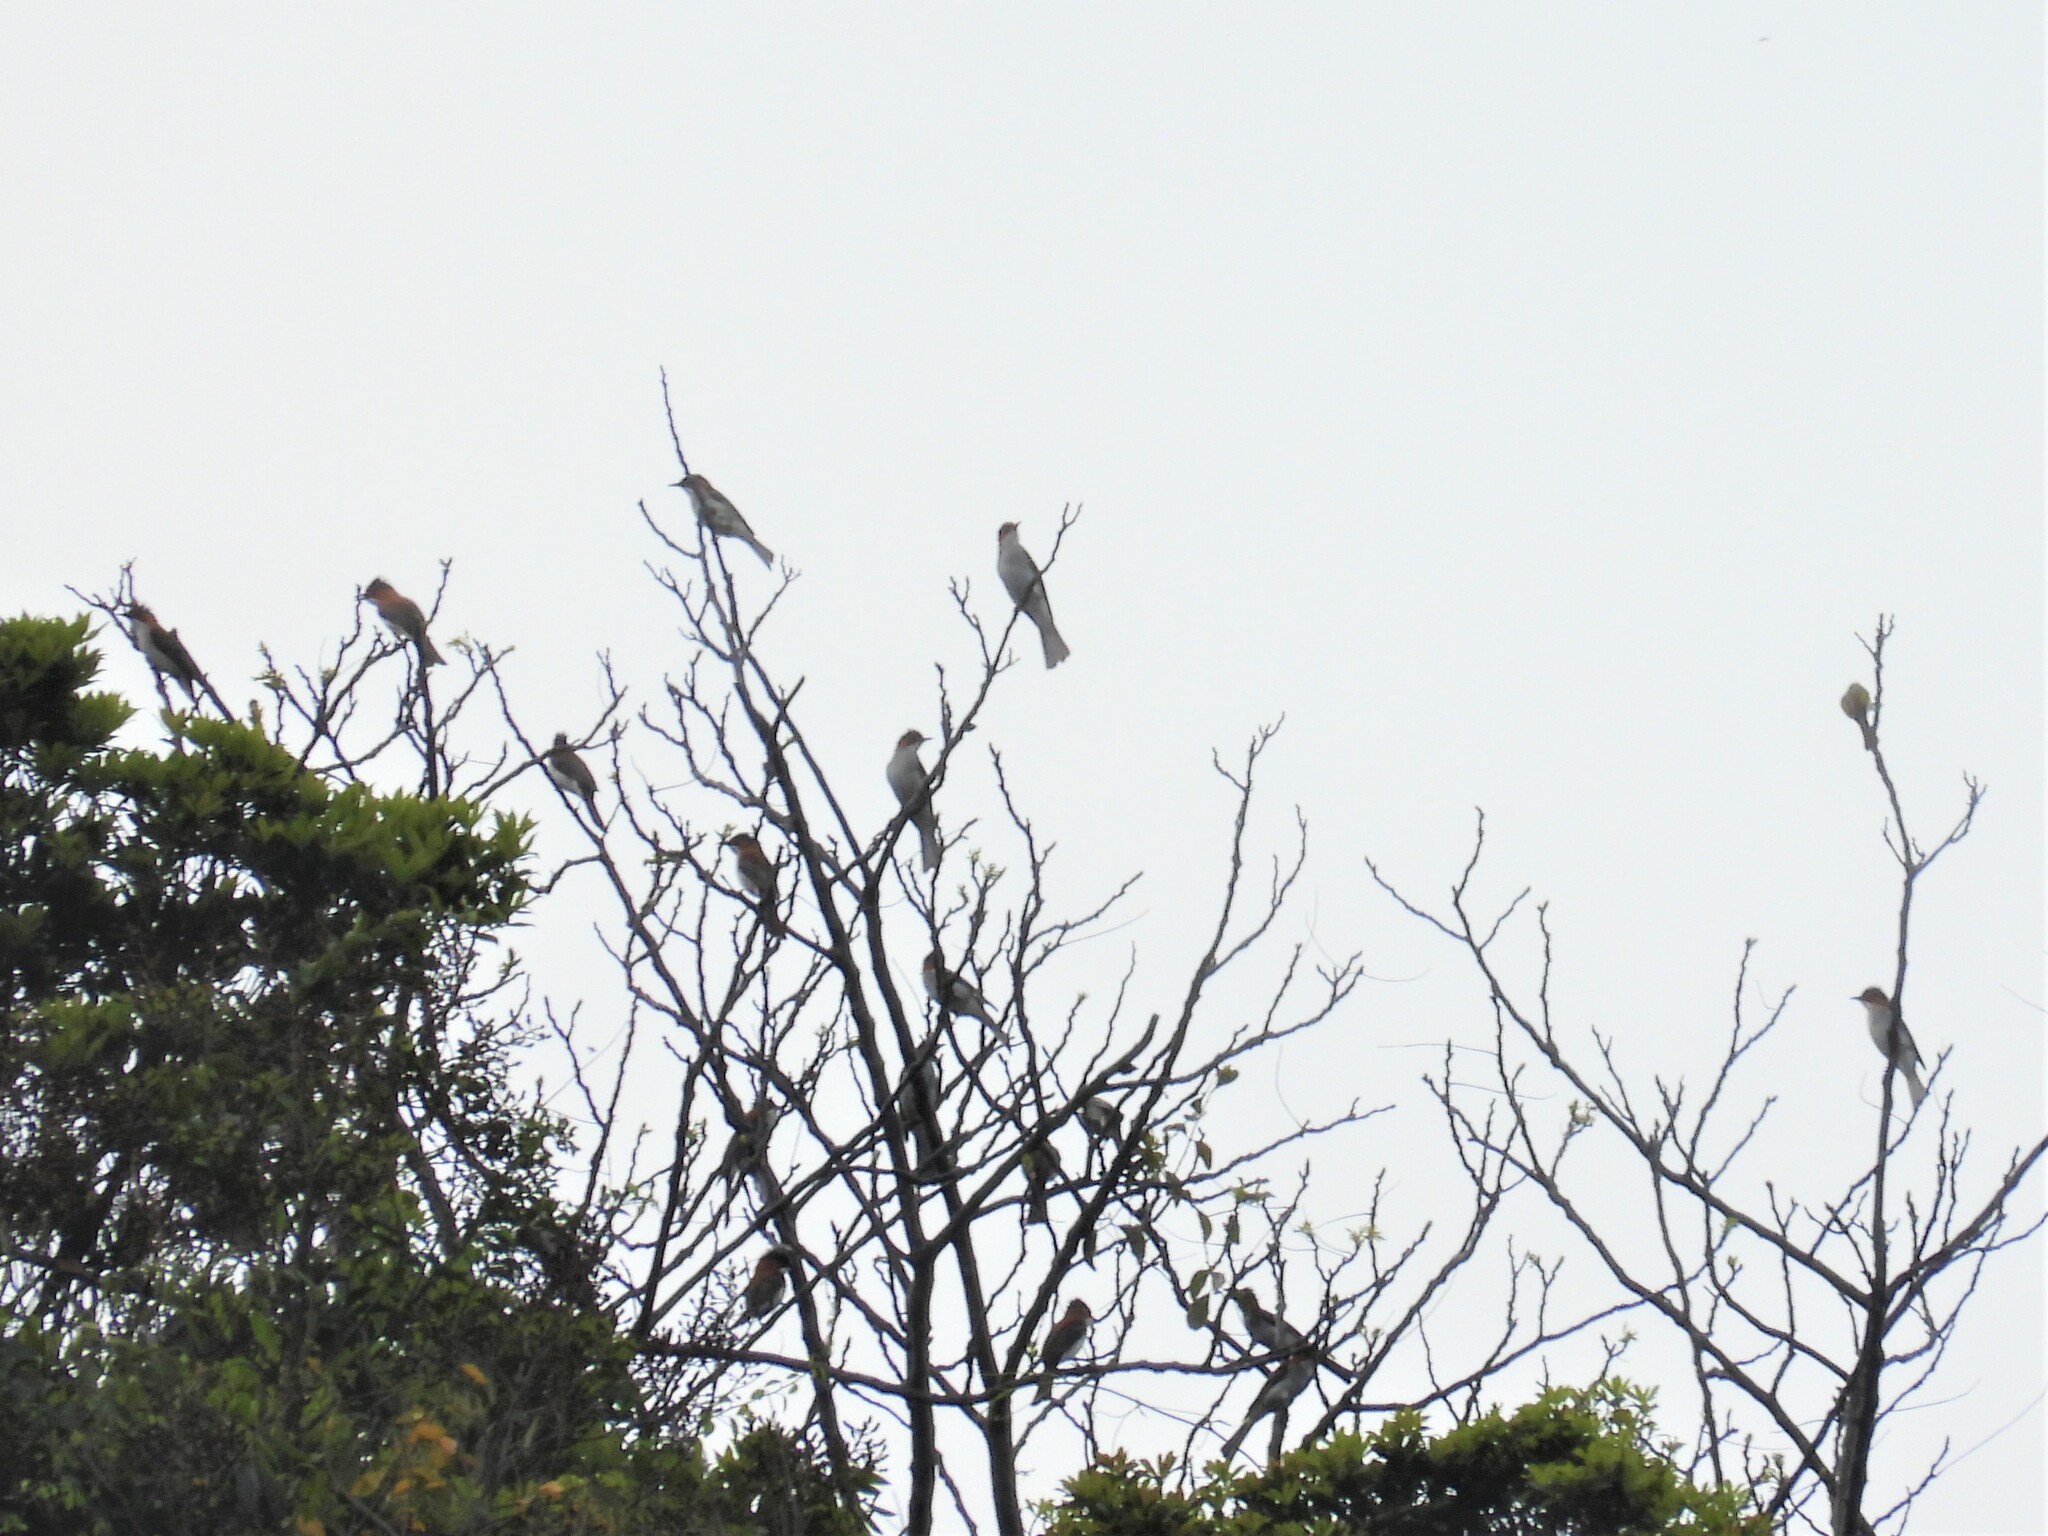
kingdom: Animalia
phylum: Chordata
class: Aves
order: Passeriformes
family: Pycnonotidae
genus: Hemixos
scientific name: Hemixos castanonotus
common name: Chestnut bulbul
